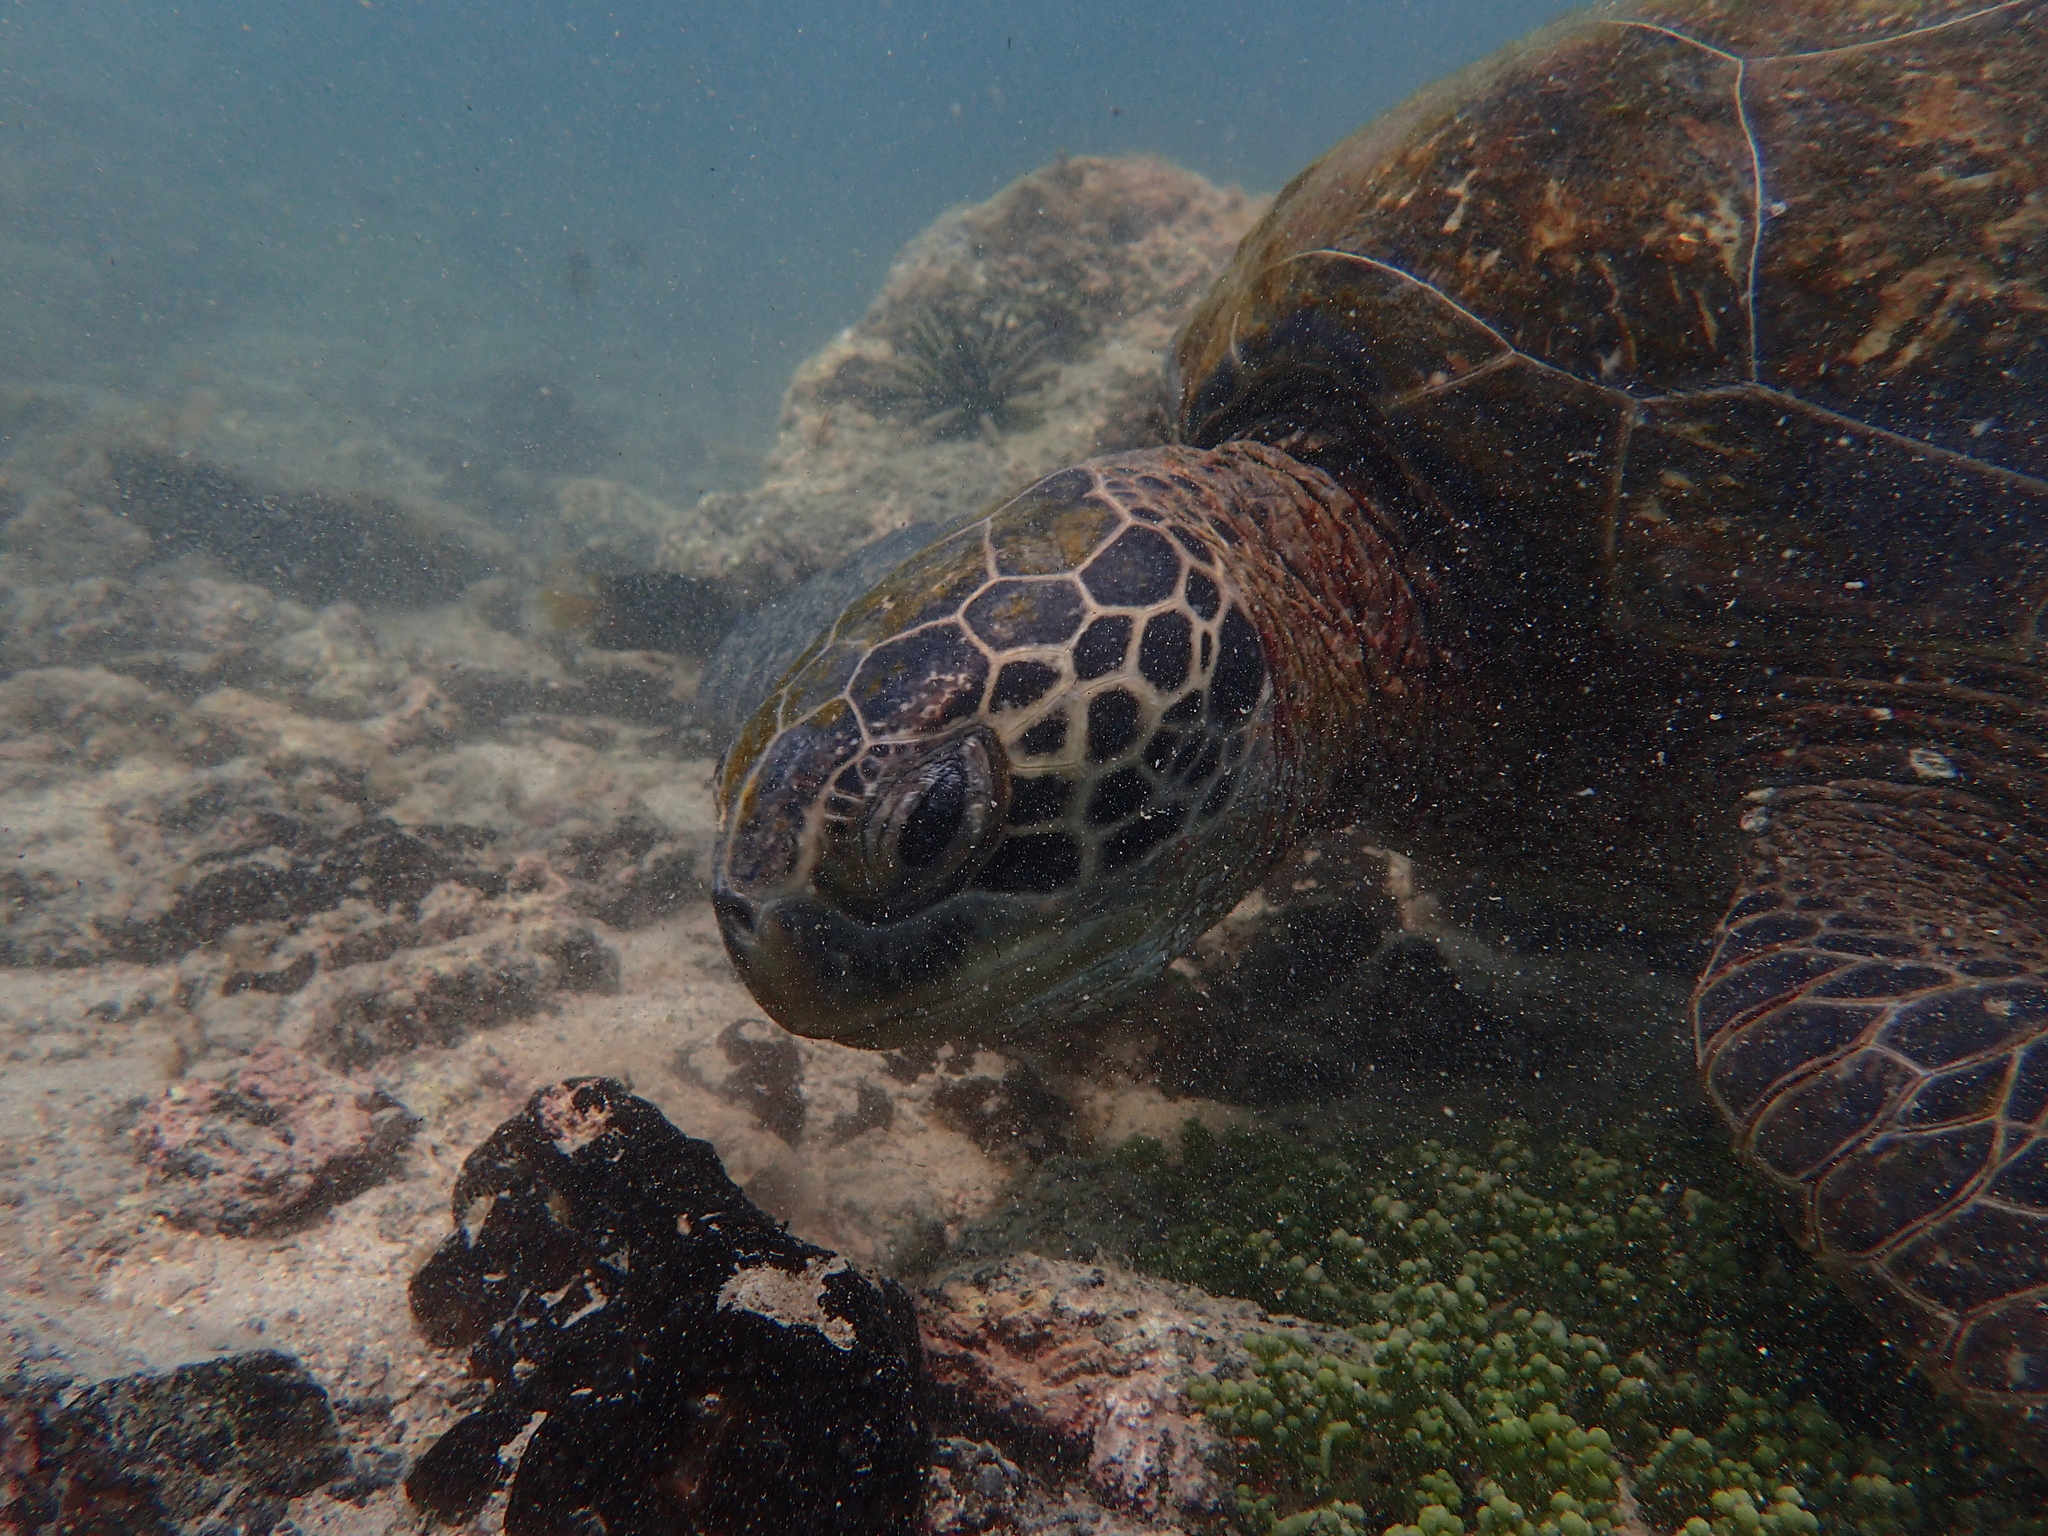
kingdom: Animalia
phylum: Chordata
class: Testudines
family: Cheloniidae
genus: Chelonia
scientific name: Chelonia mydas
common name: Green turtle
